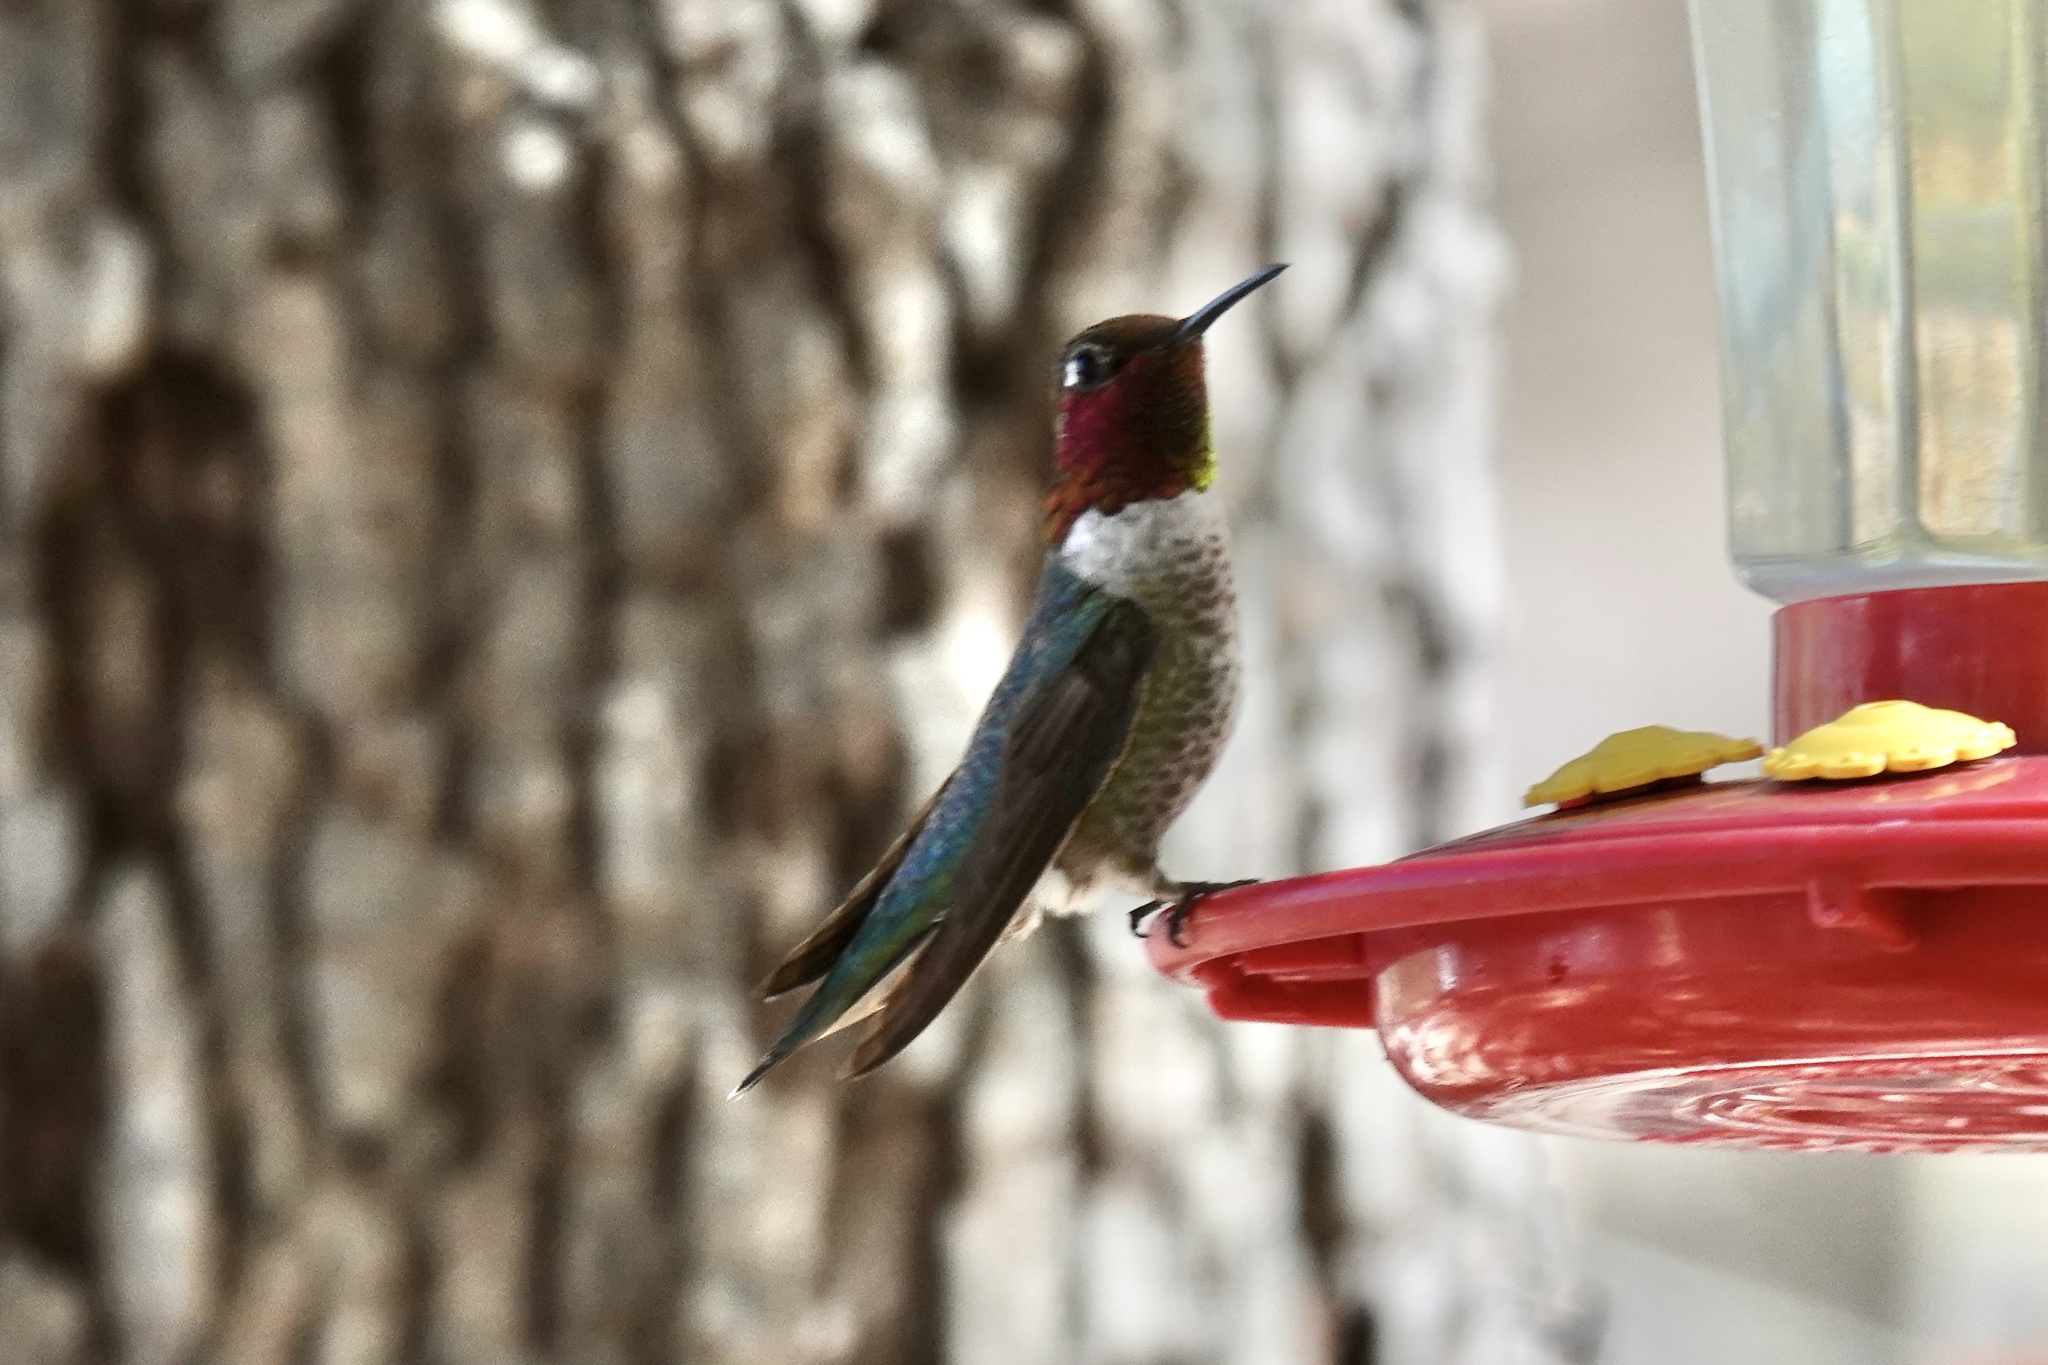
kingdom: Animalia
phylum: Chordata
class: Aves
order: Apodiformes
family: Trochilidae
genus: Calypte
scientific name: Calypte anna
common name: Anna's hummingbird
